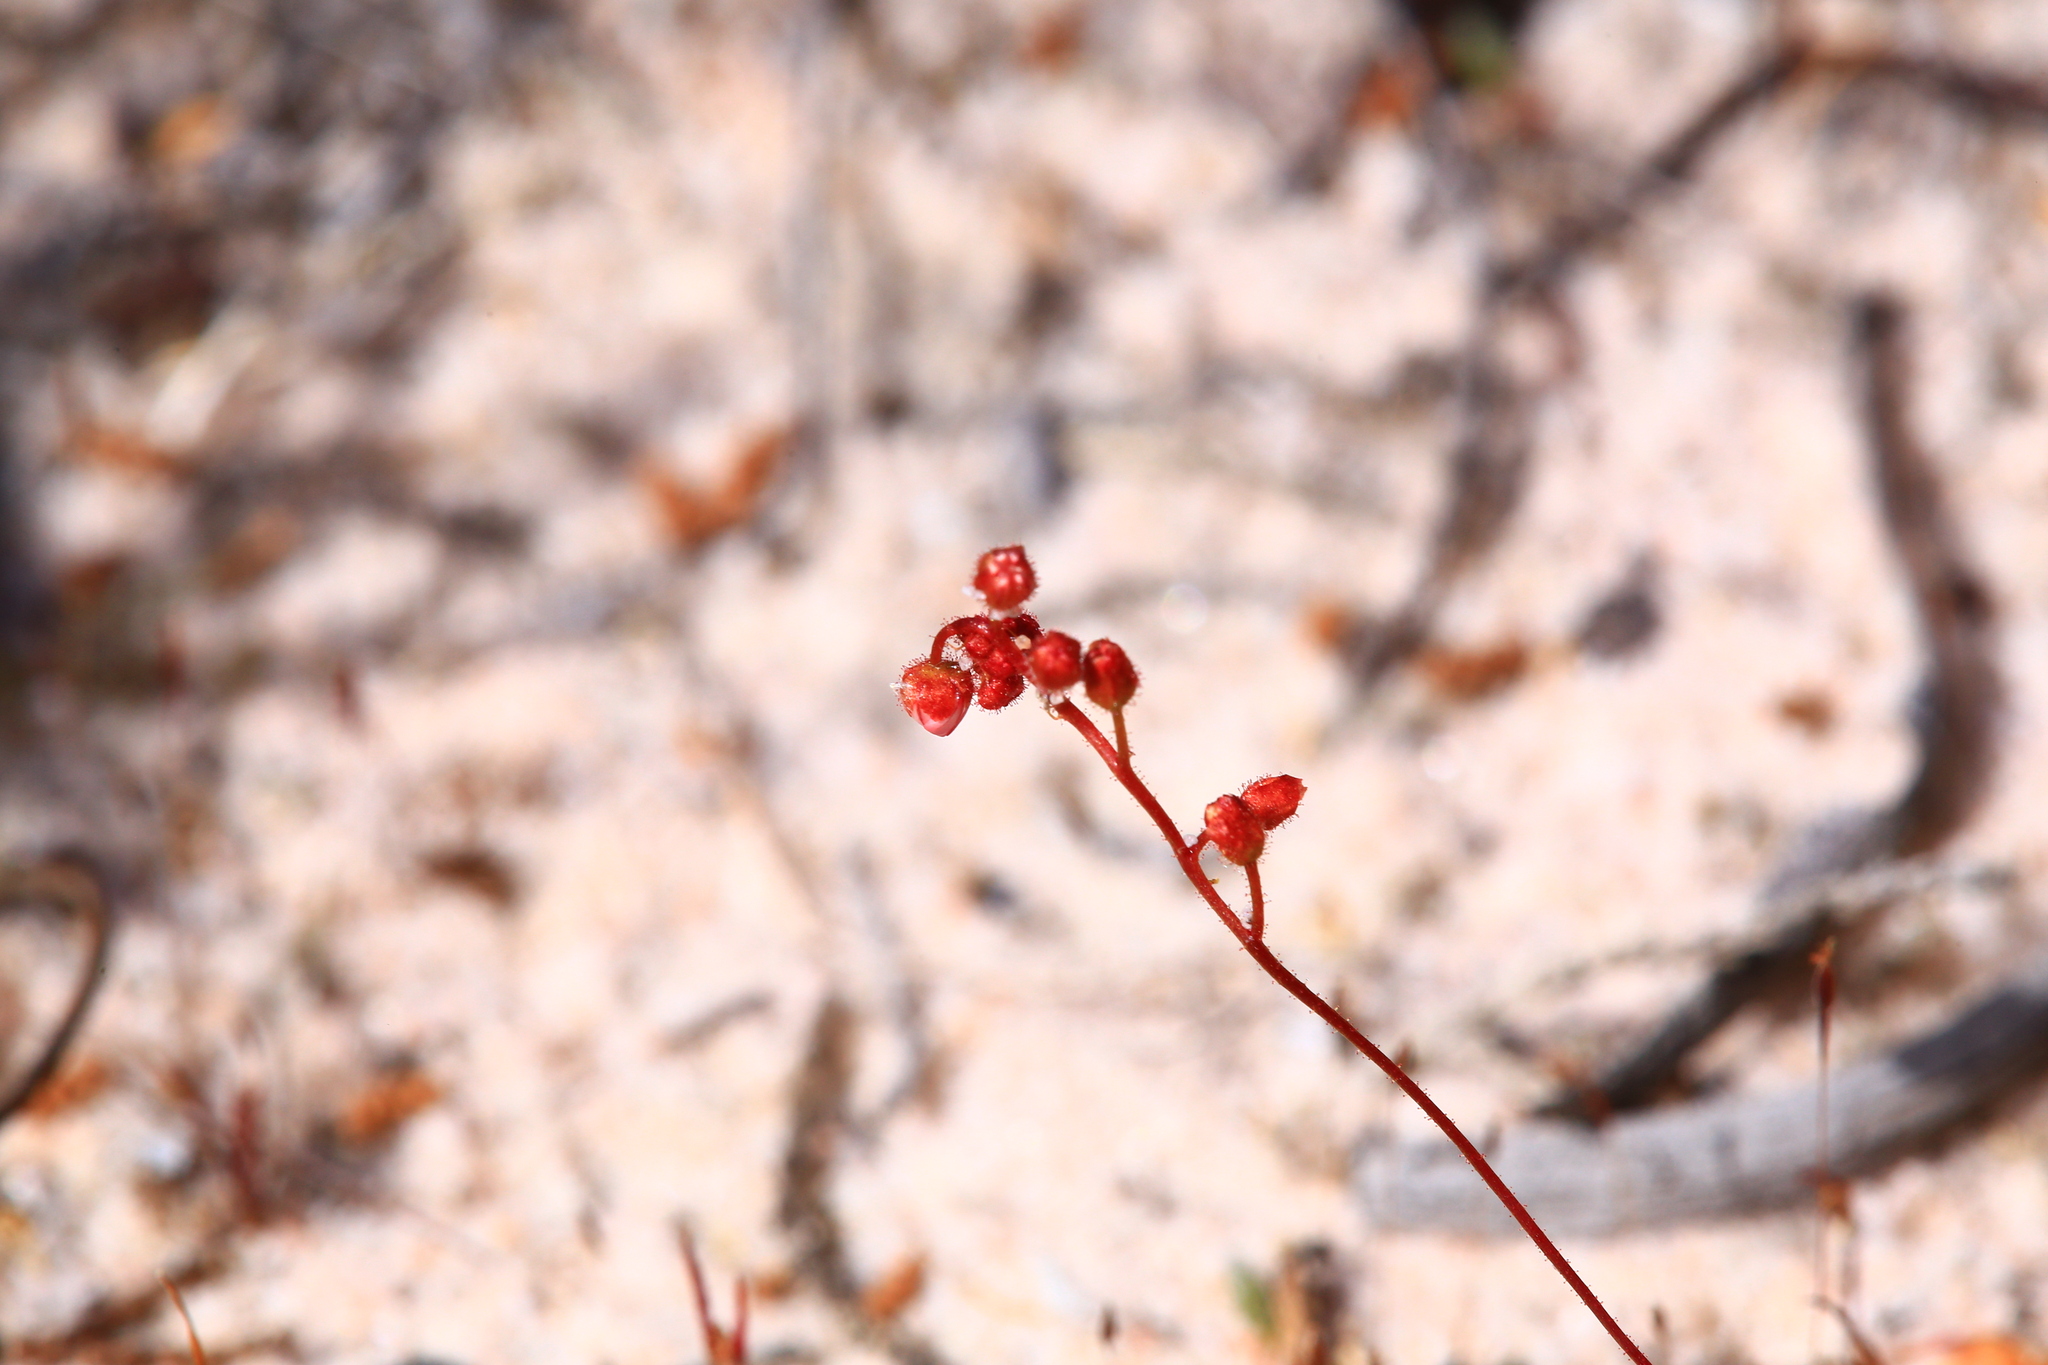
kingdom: Plantae
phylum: Tracheophyta
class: Magnoliopsida
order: Caryophyllales
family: Droseraceae
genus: Drosera
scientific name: Drosera closterostigma
